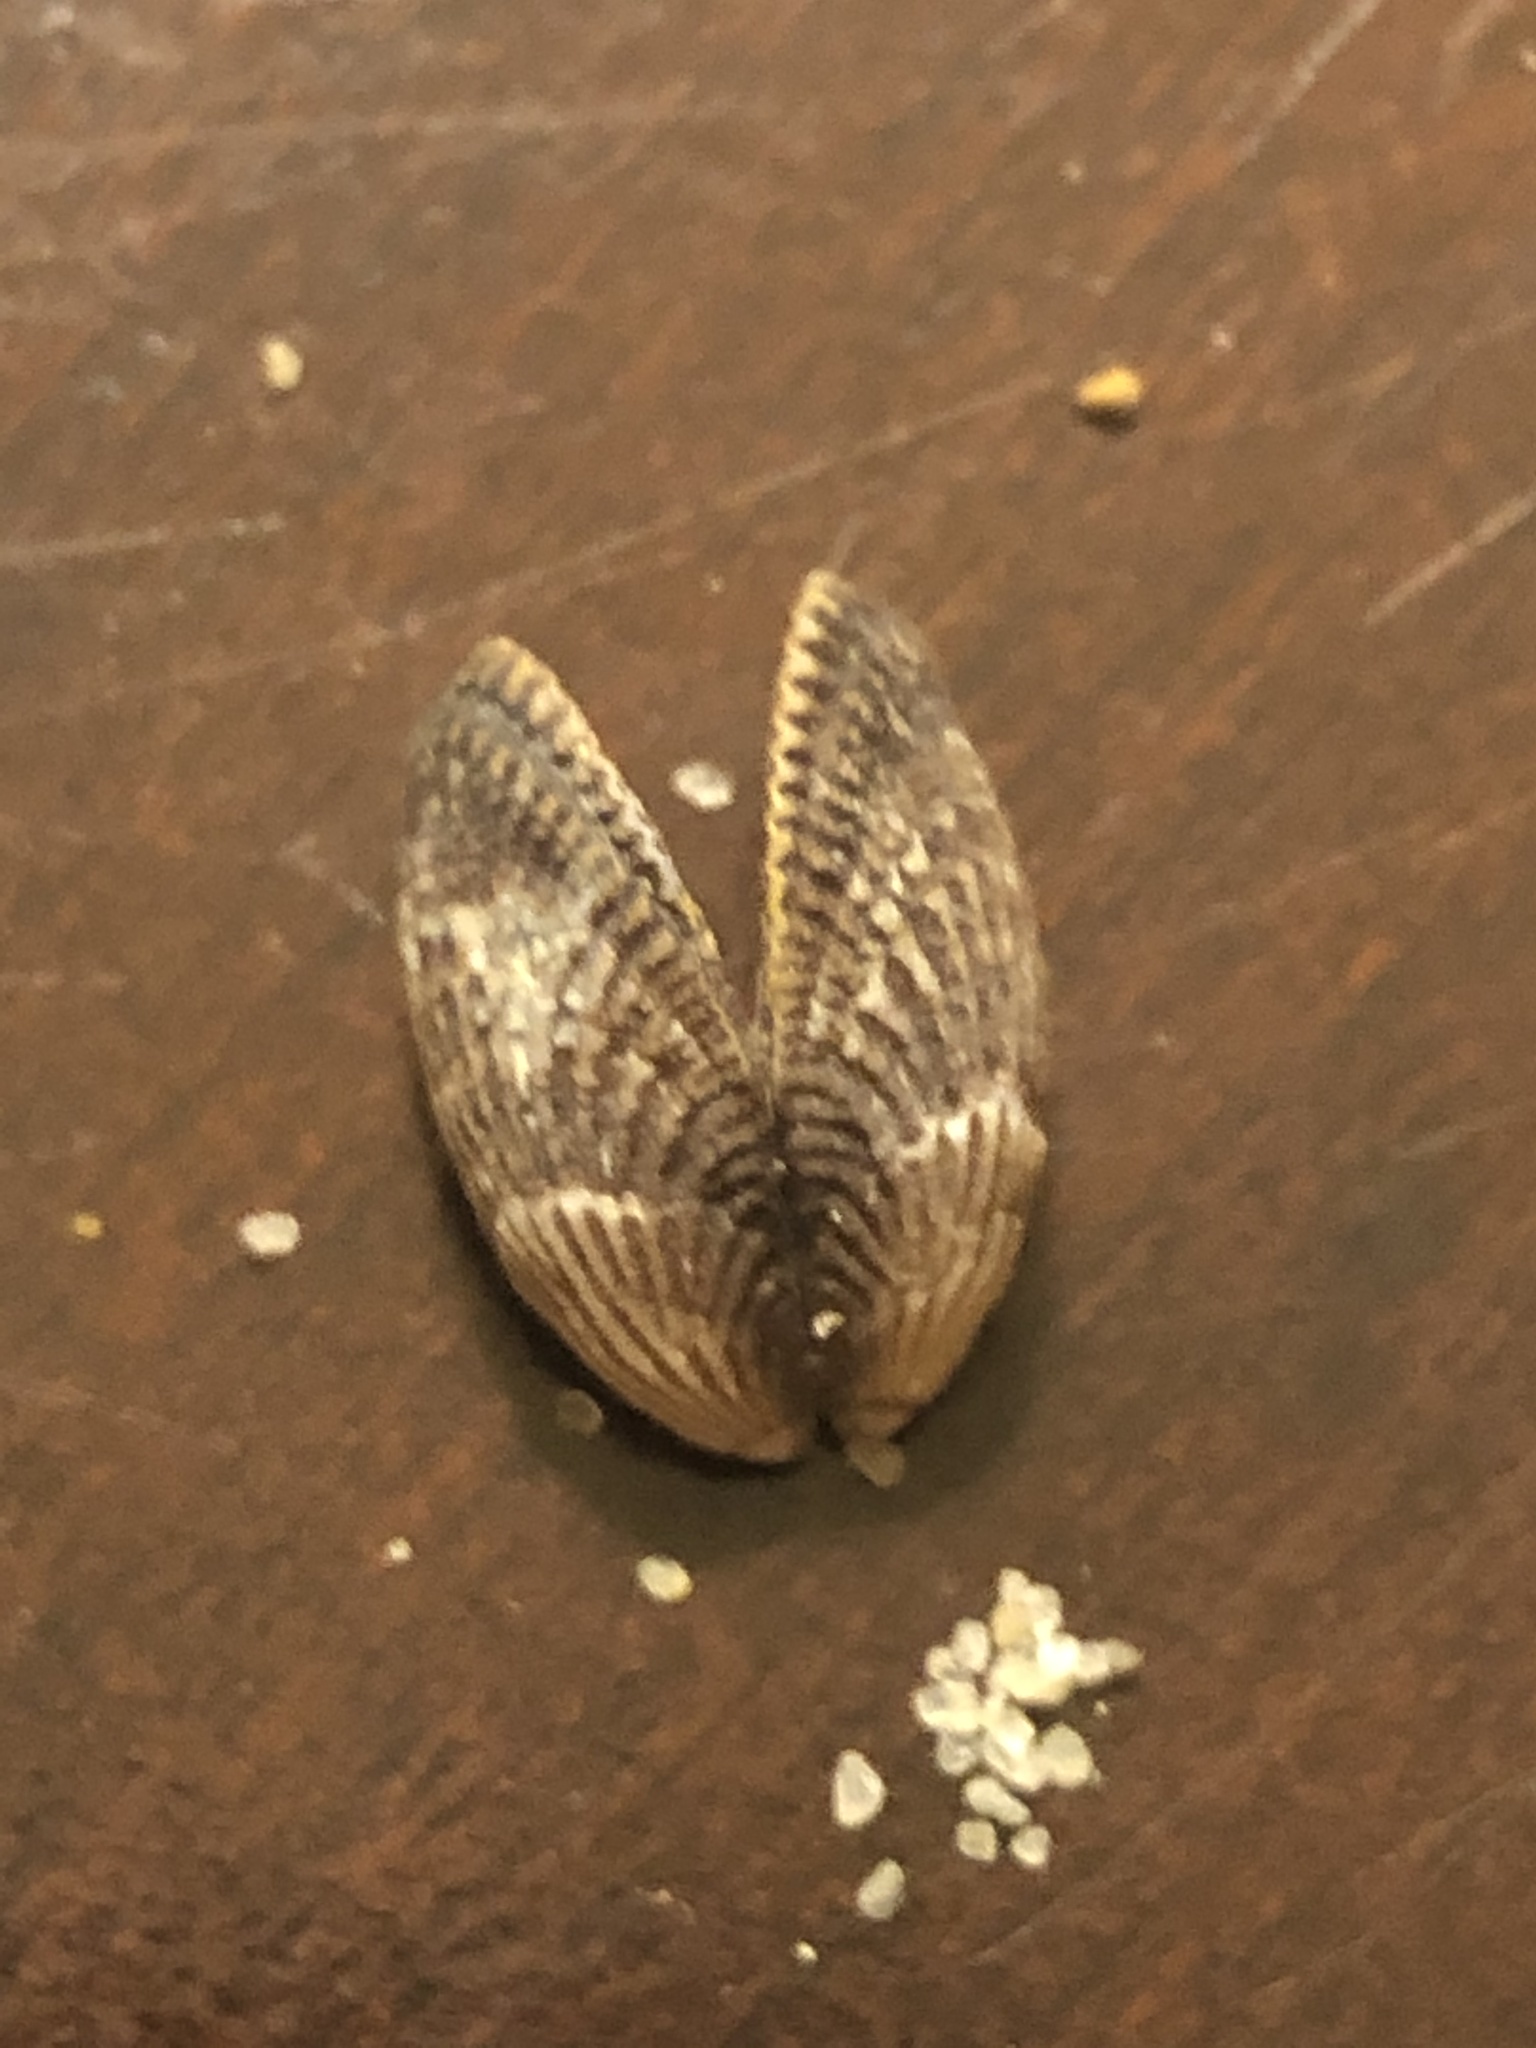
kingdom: Animalia
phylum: Mollusca
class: Bivalvia
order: Mytilida
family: Mytilidae
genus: Mytilisepta
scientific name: Mytilisepta bifurcata
